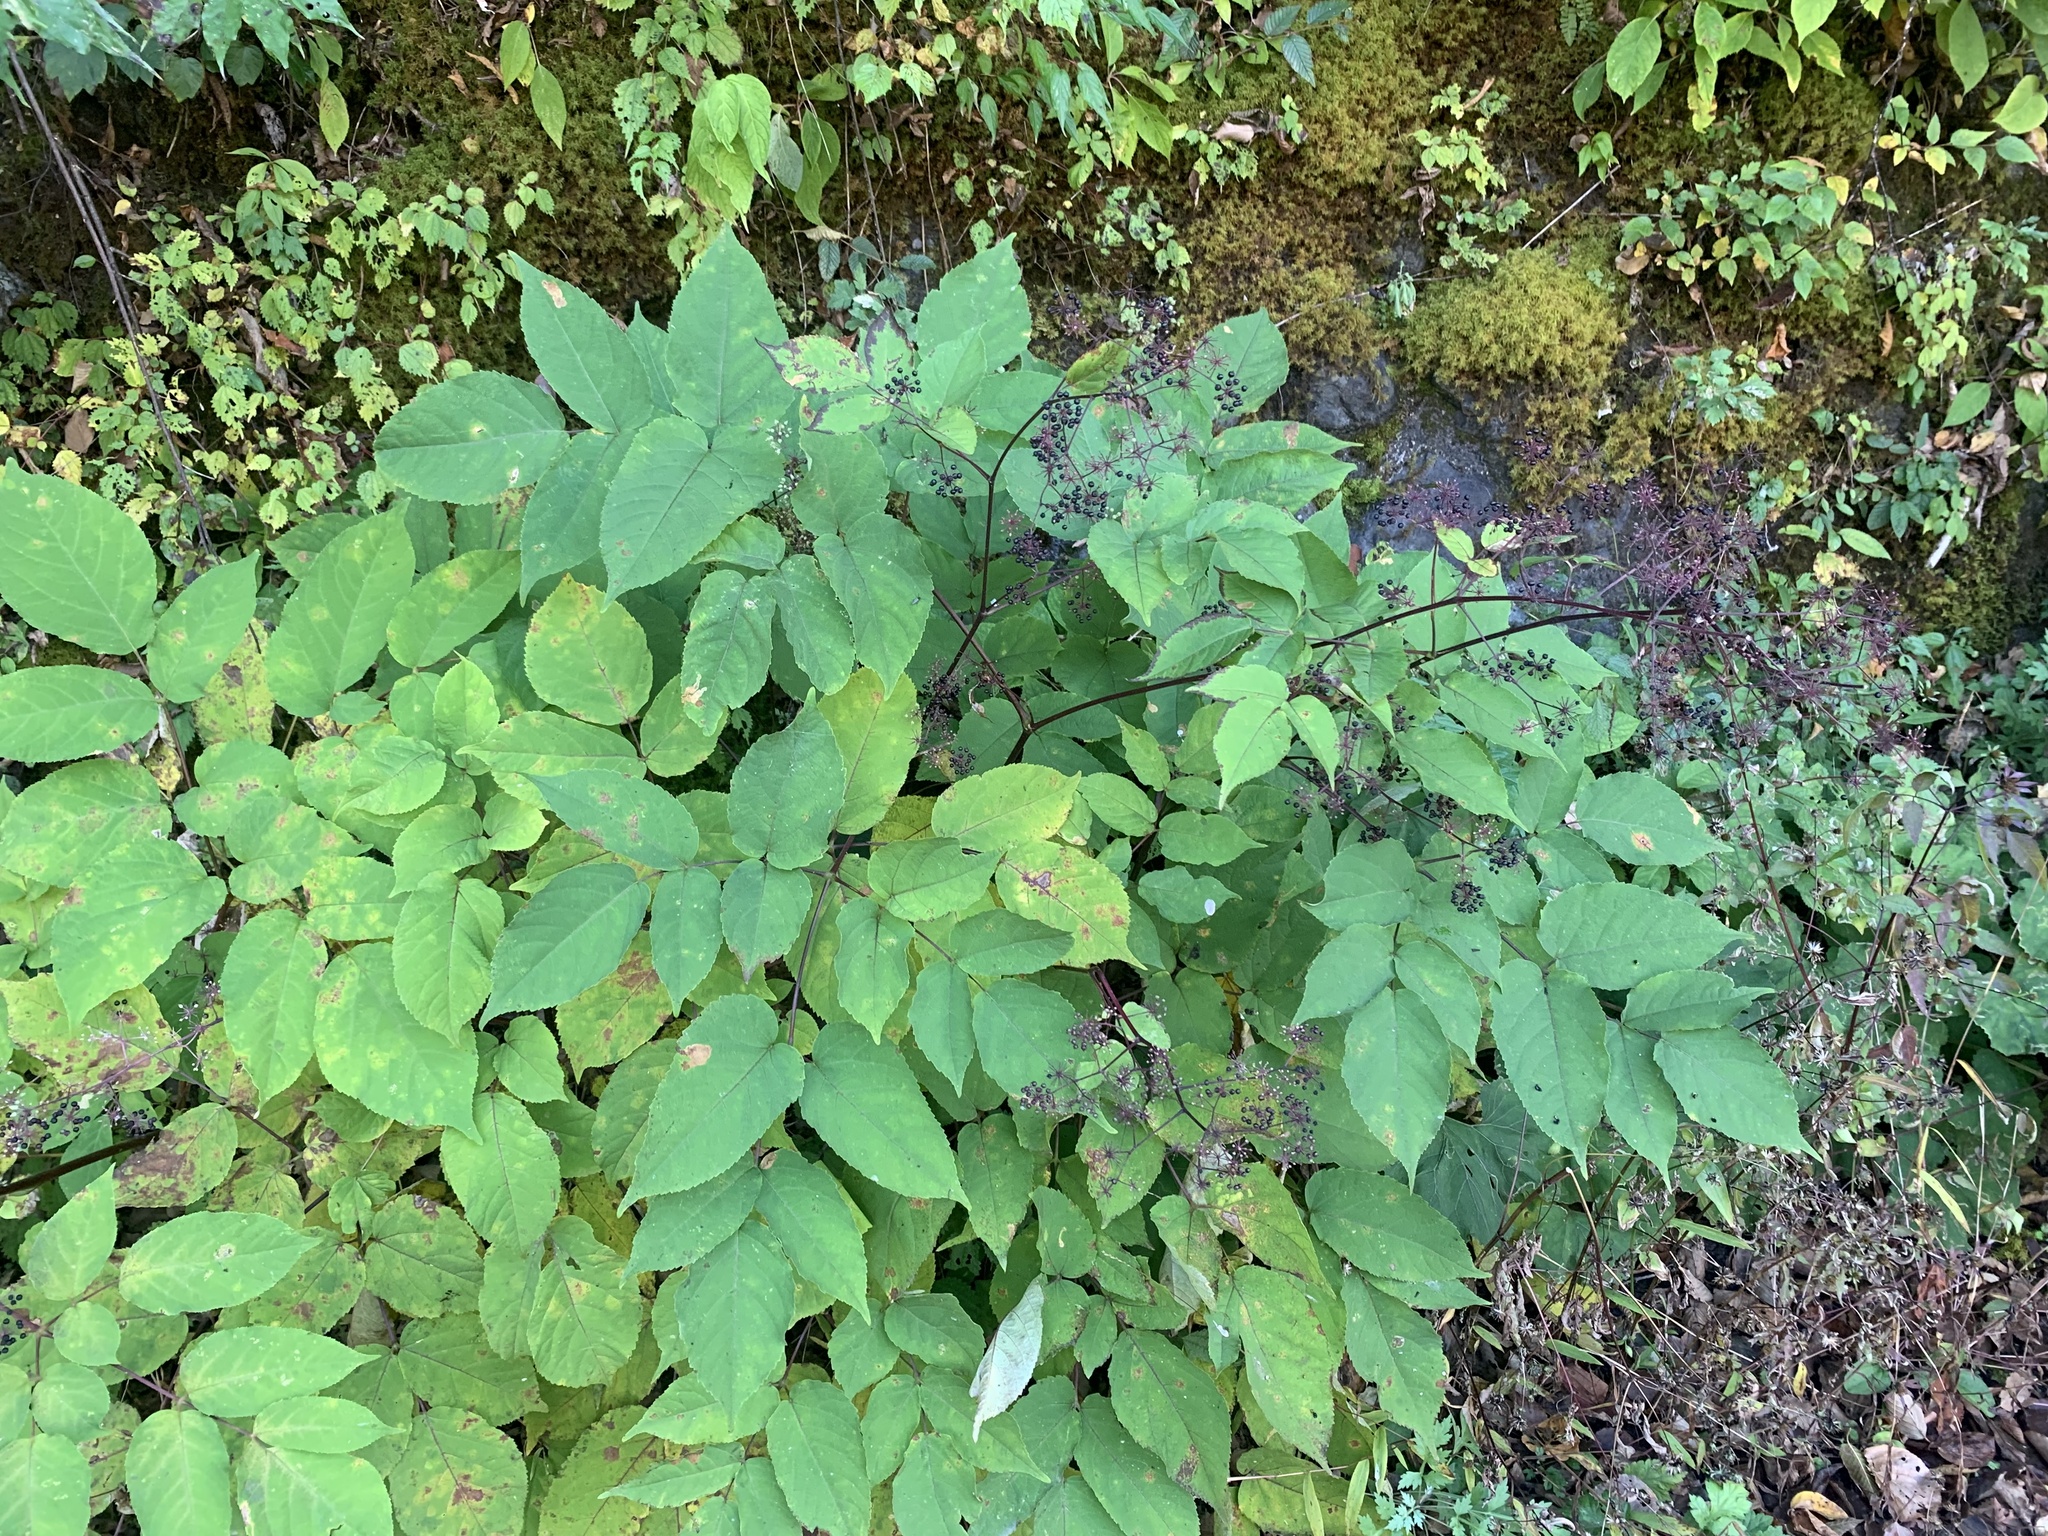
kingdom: Plantae
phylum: Tracheophyta
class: Magnoliopsida
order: Apiales
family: Araliaceae
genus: Aralia
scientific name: Aralia cordata
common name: Udo
